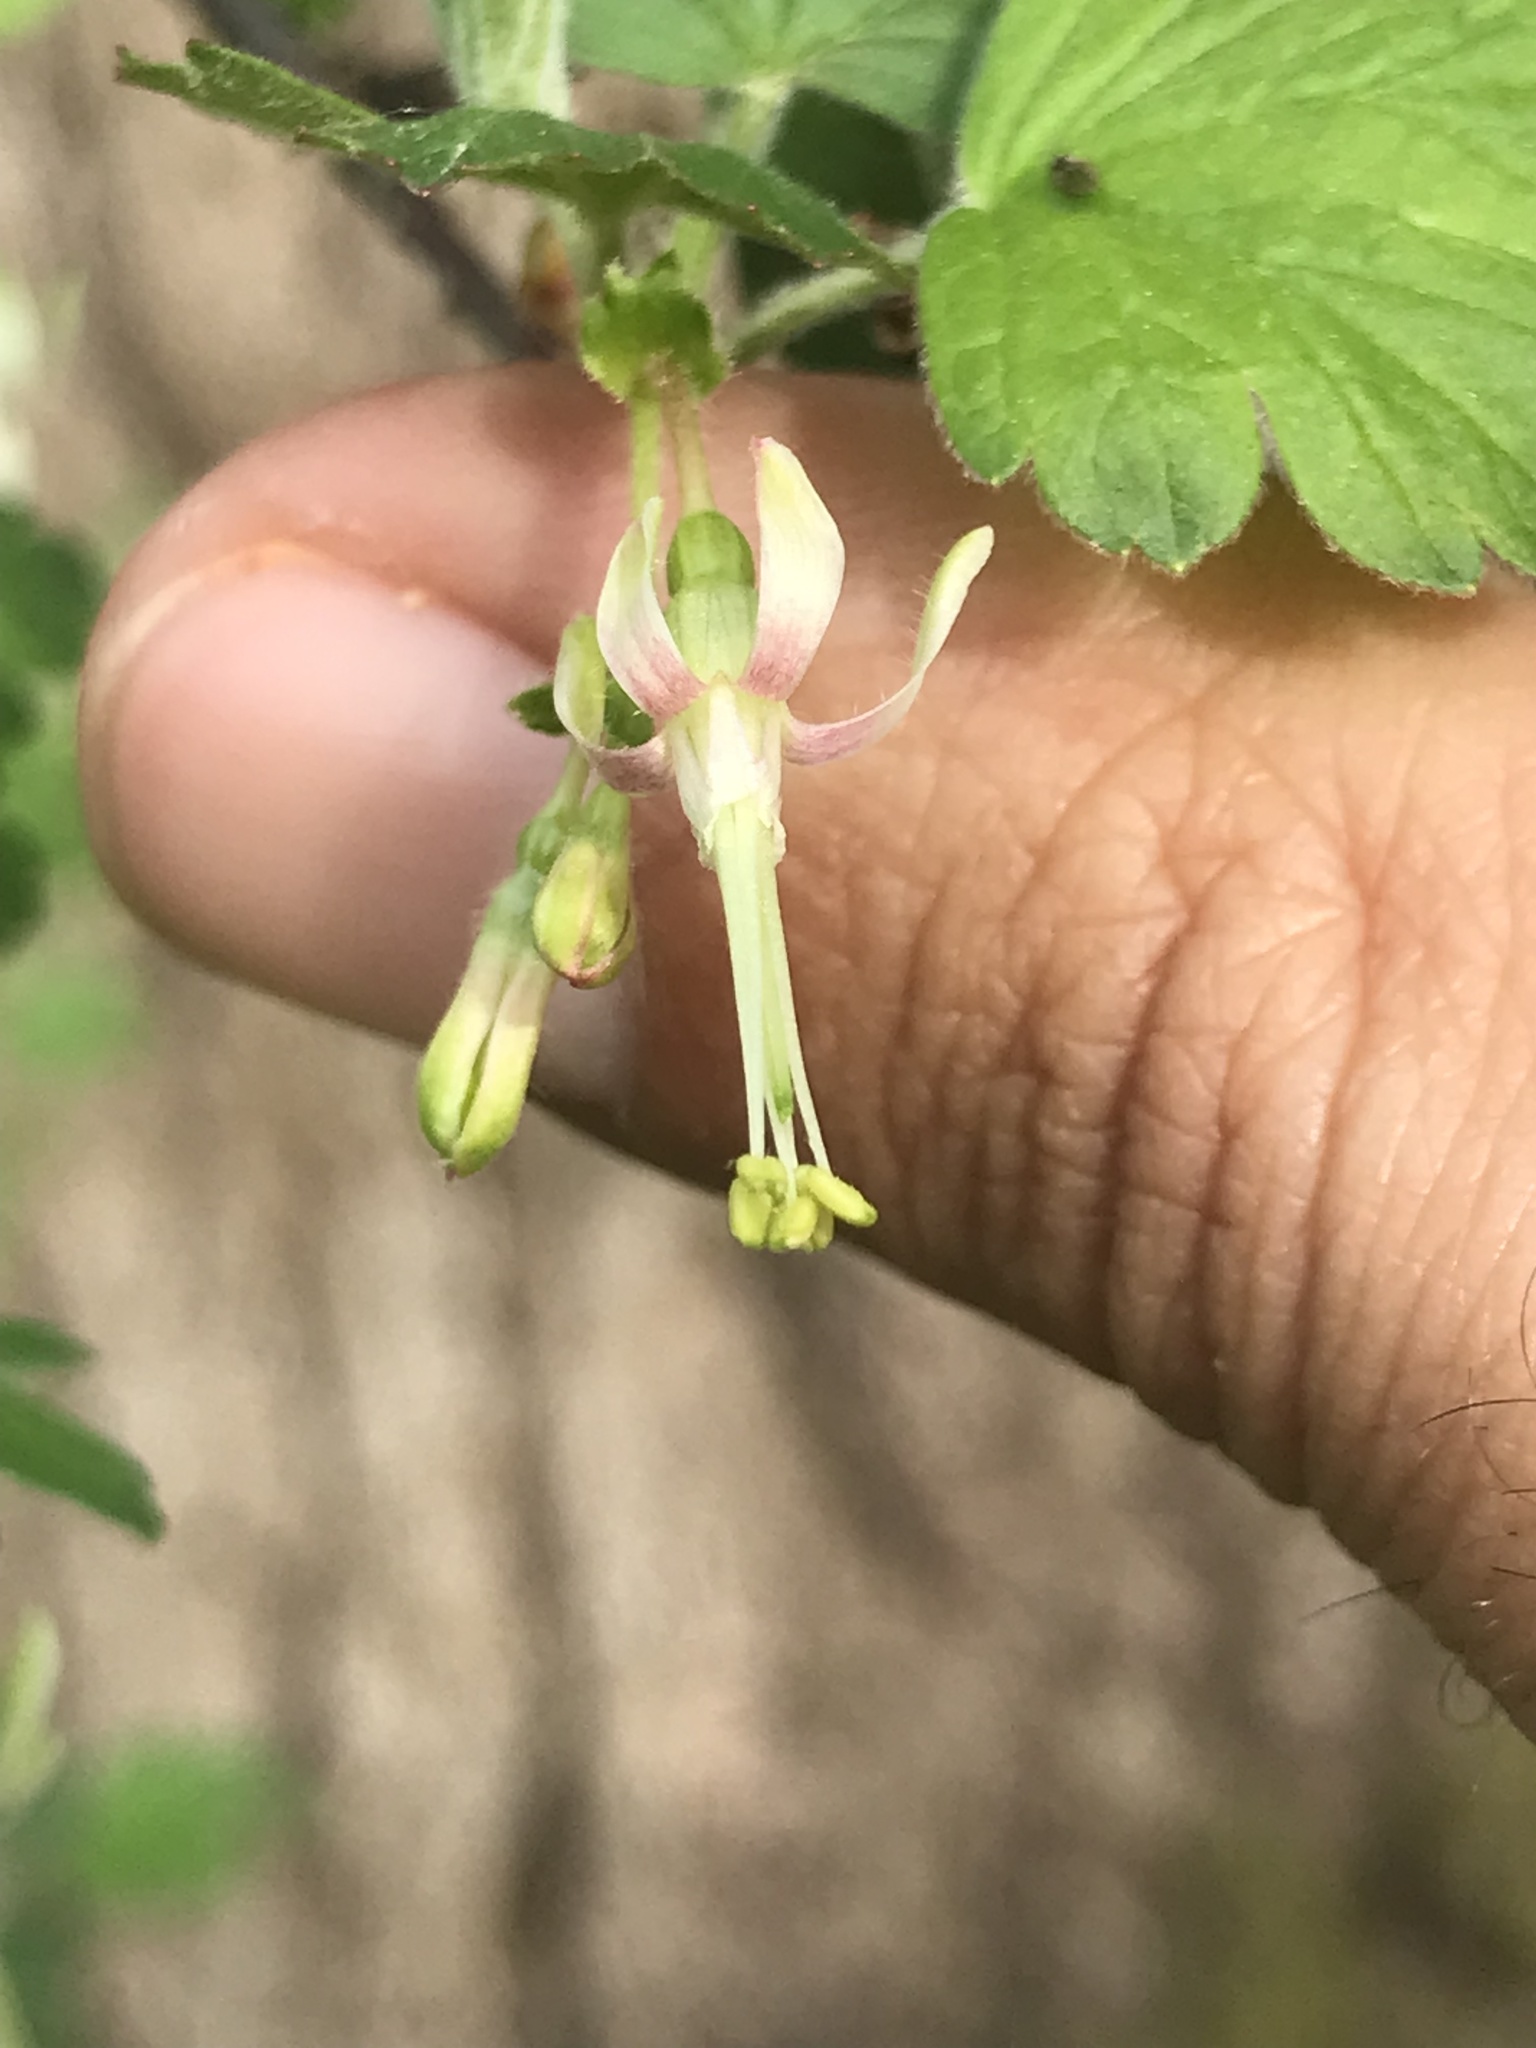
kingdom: Plantae
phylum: Tracheophyta
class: Magnoliopsida
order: Saxifragales
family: Grossulariaceae
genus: Ribes
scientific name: Ribes missouriense
